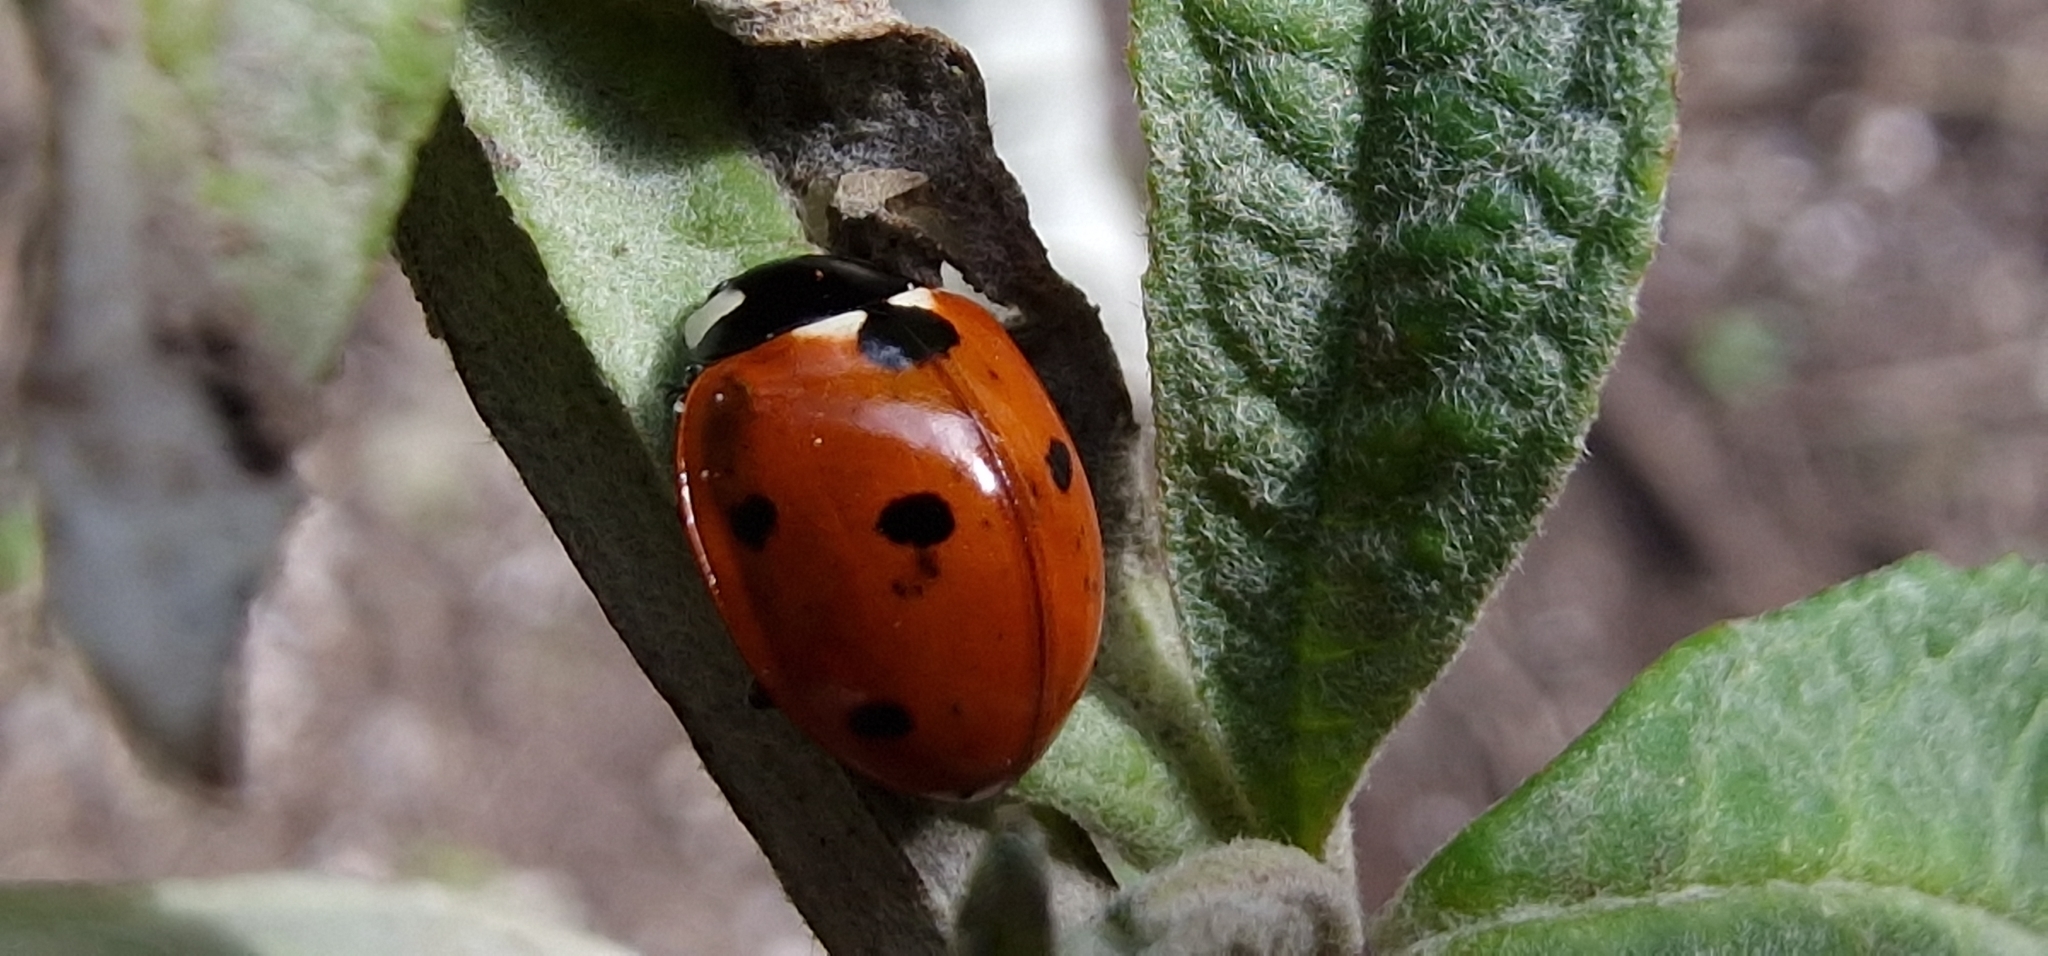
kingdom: Animalia
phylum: Arthropoda
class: Insecta
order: Coleoptera
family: Coccinellidae
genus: Coccinella
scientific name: Coccinella septempunctata
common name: Sevenspotted lady beetle
